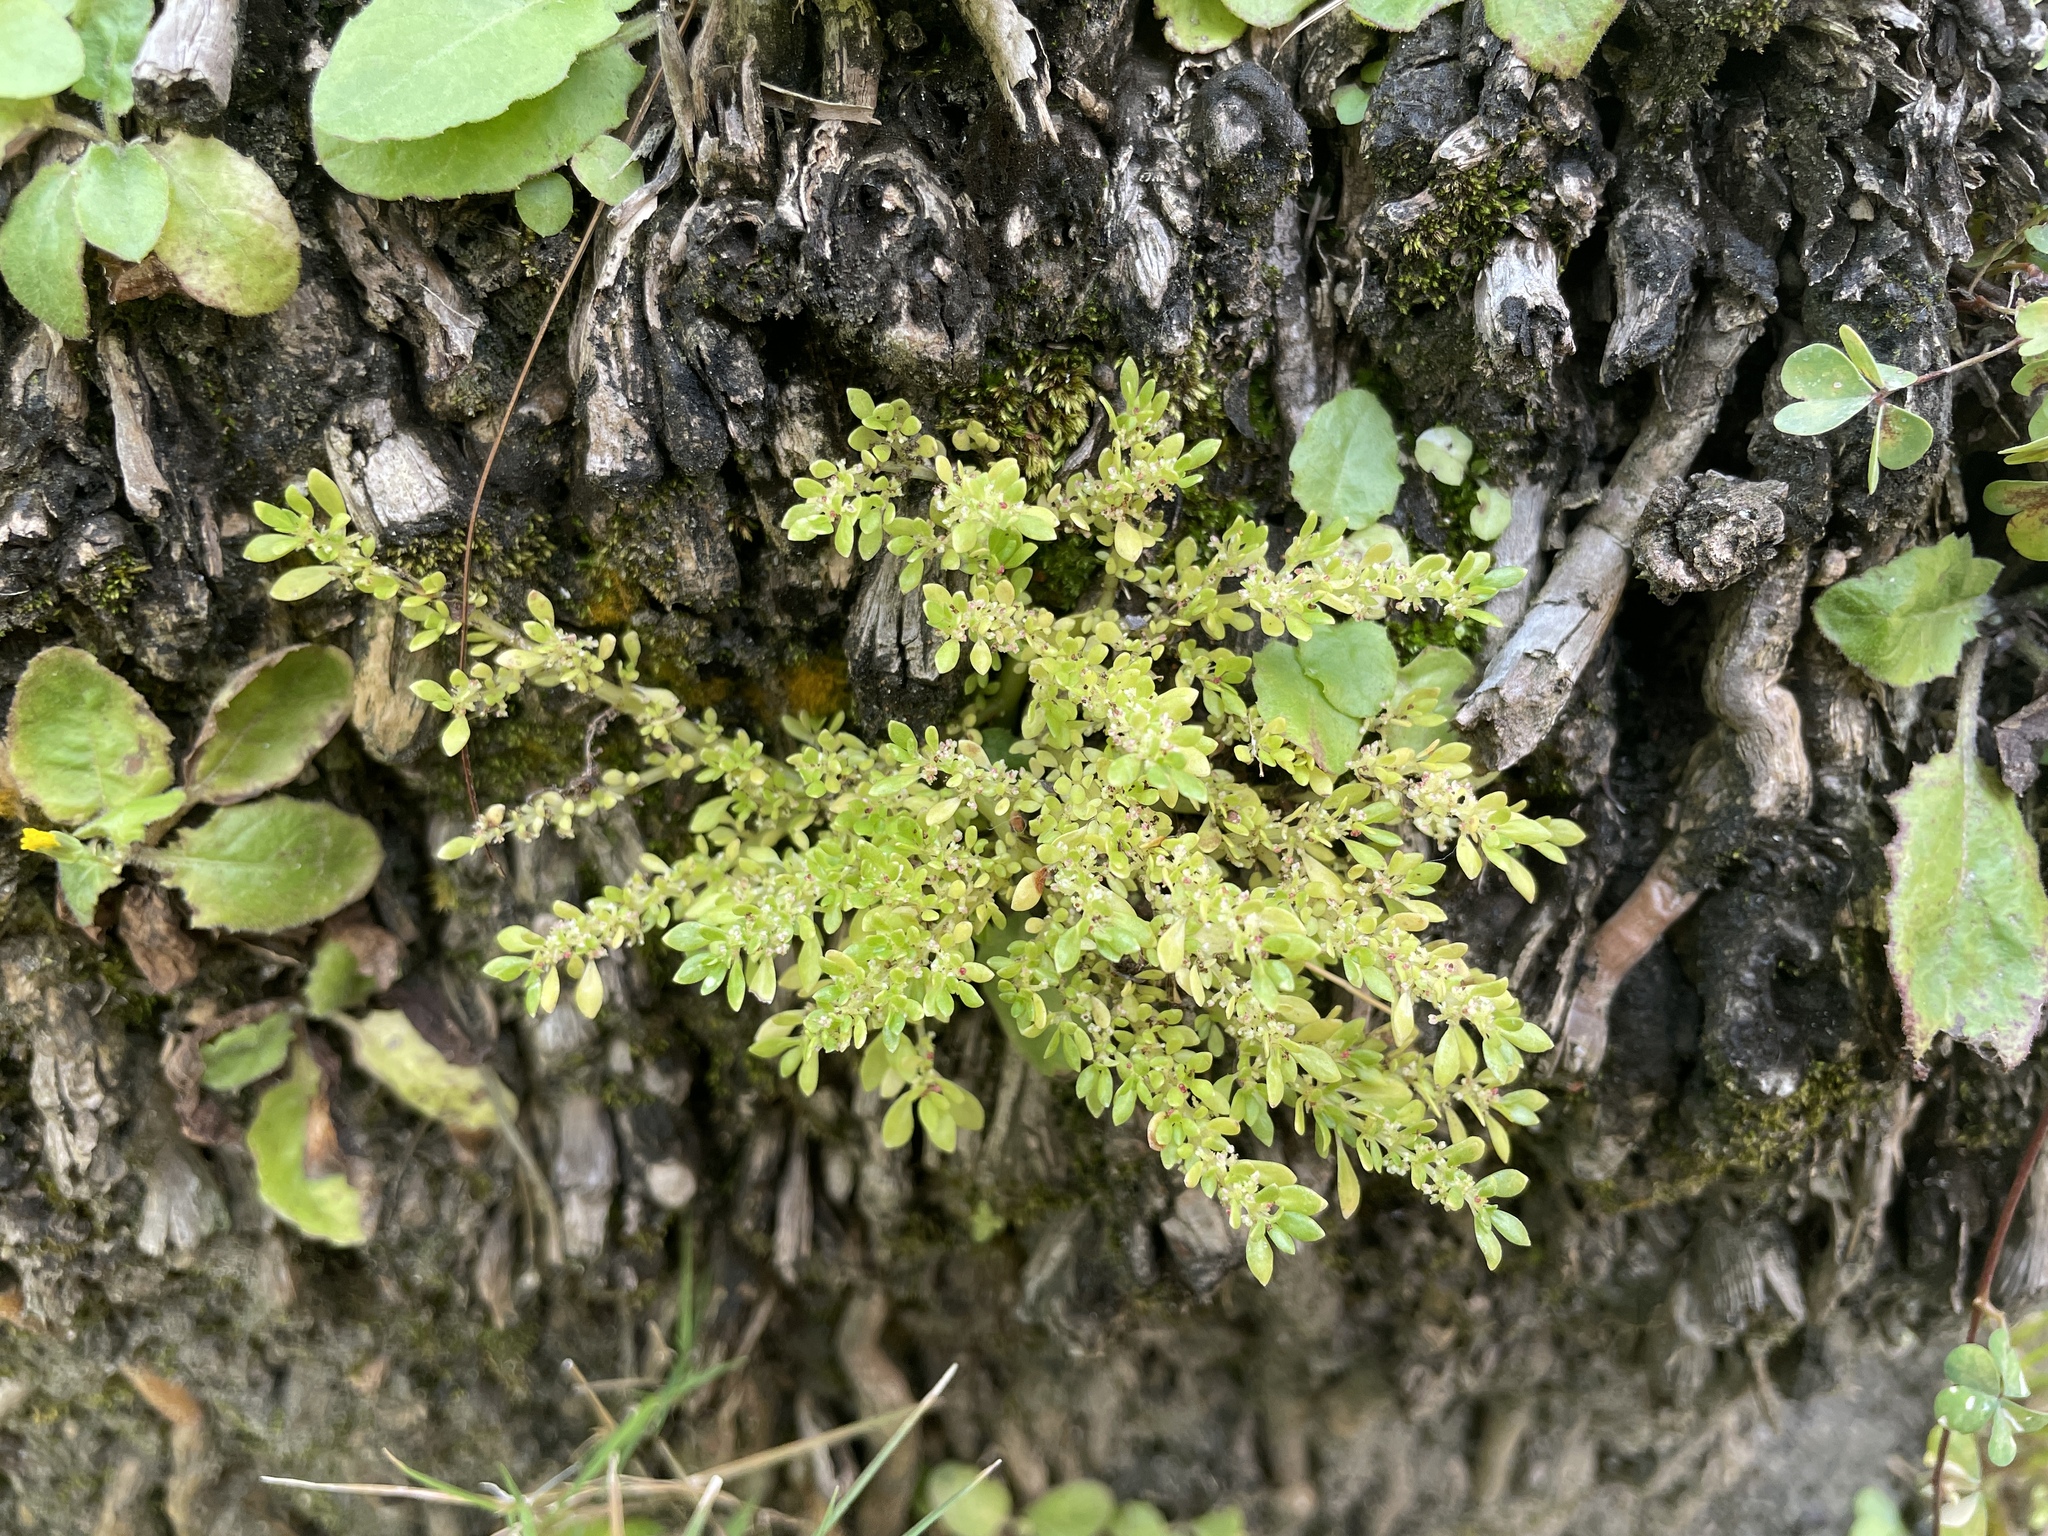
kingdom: Plantae
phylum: Tracheophyta
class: Magnoliopsida
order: Rosales
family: Urticaceae
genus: Pilea
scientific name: Pilea microphylla
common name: Artillery-plant
